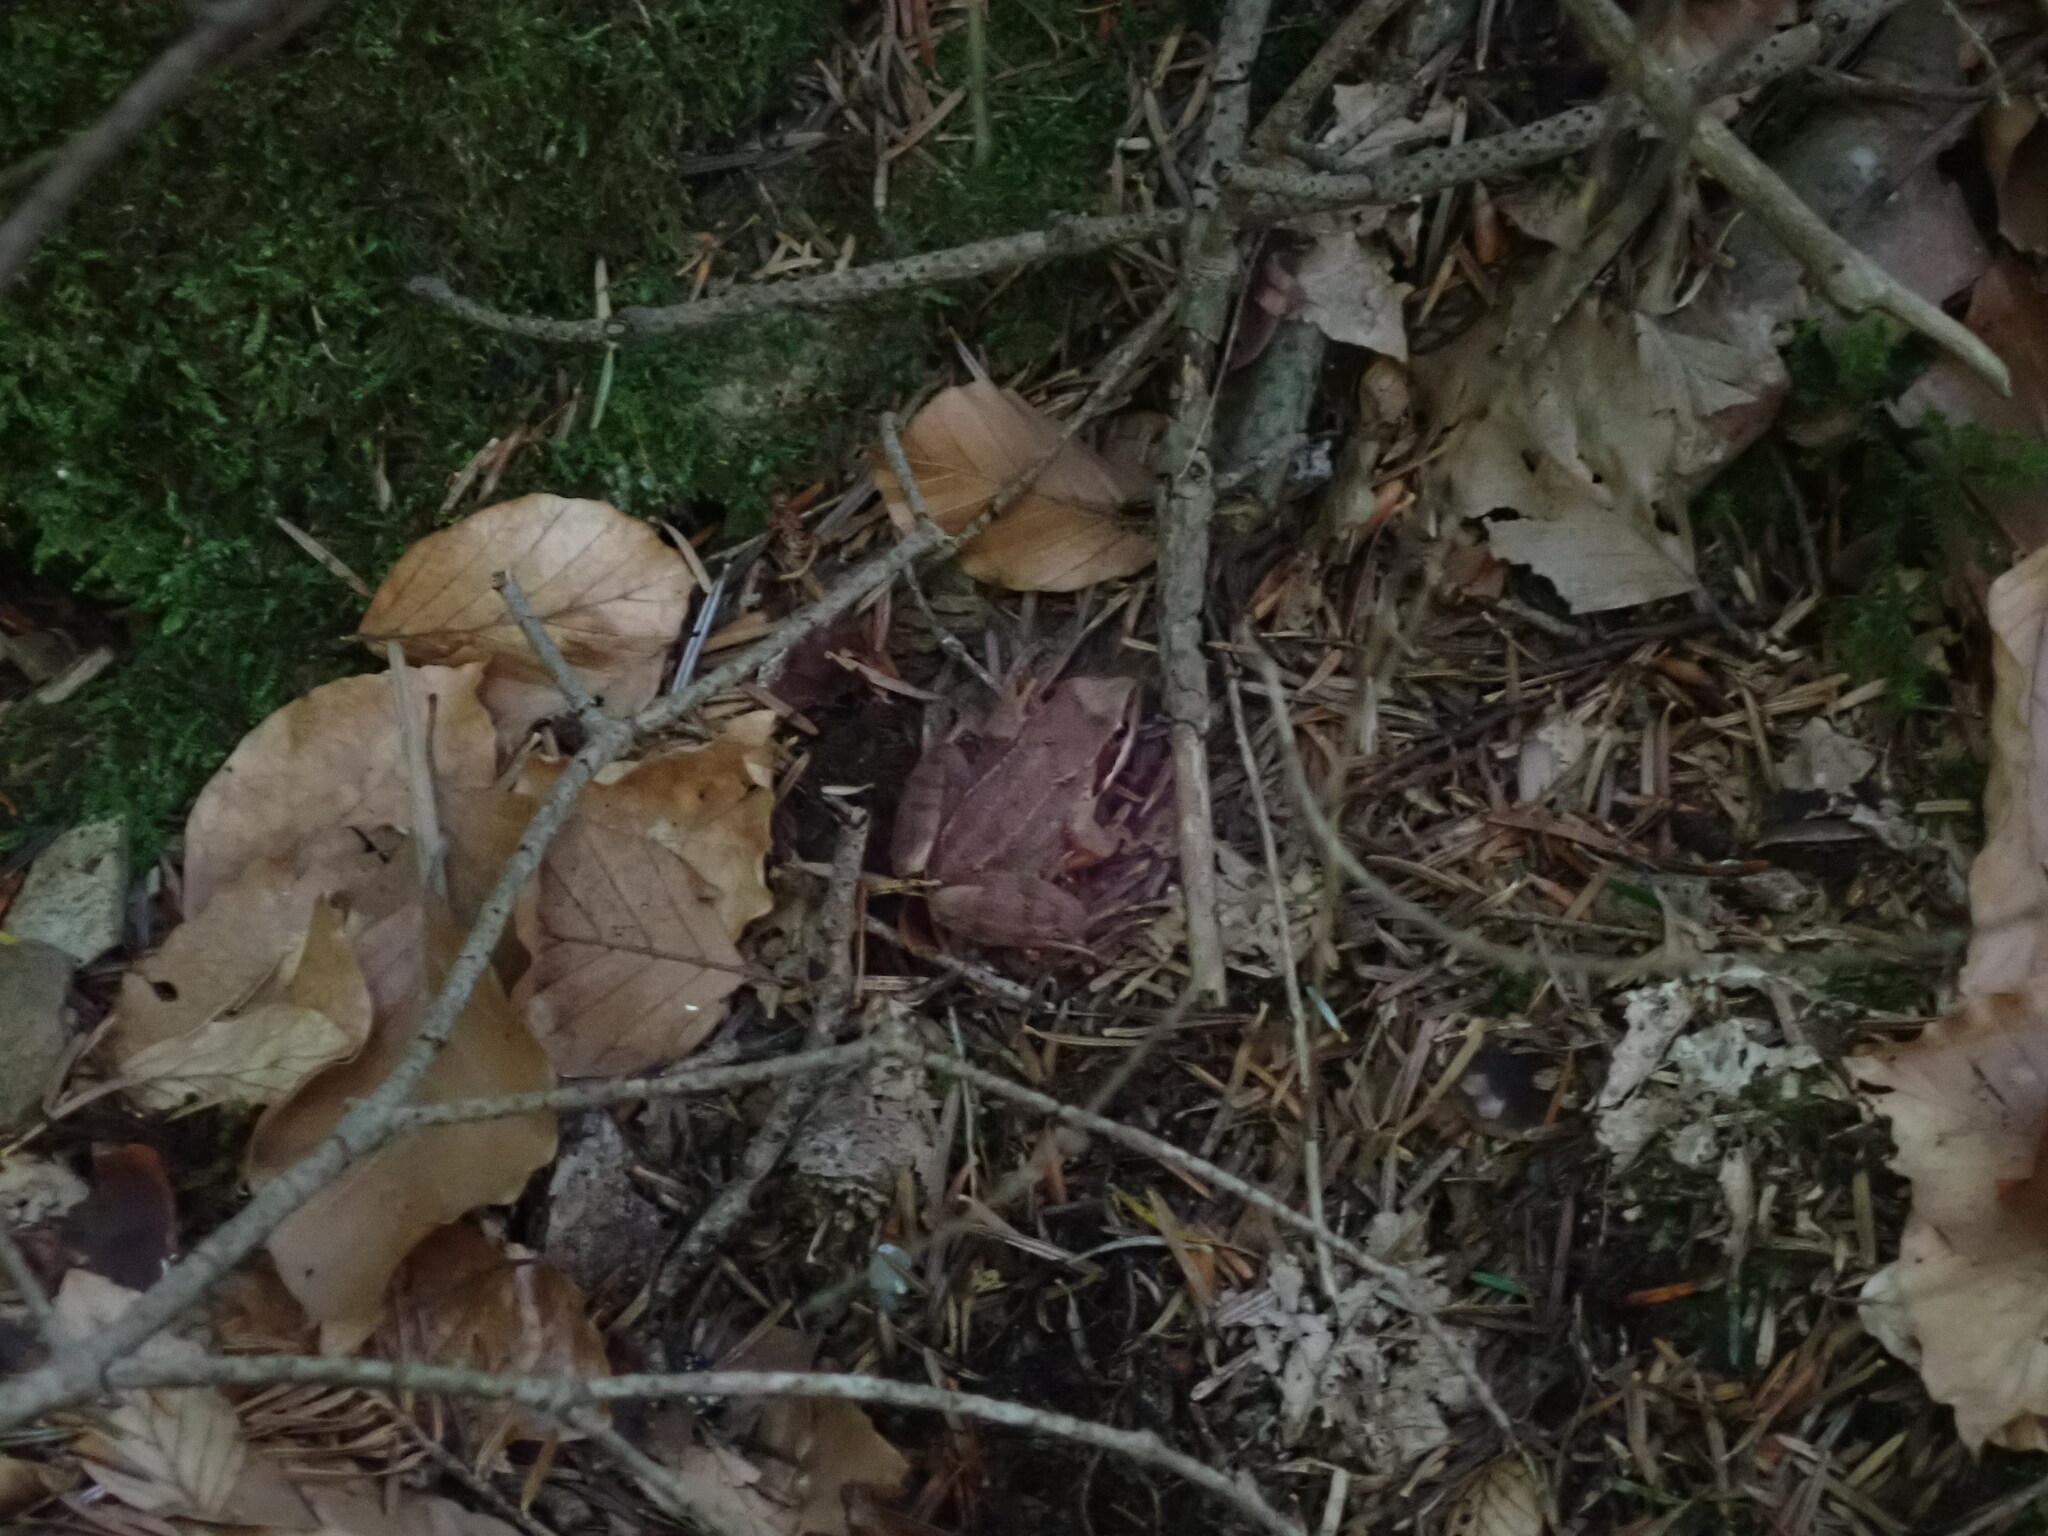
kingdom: Animalia
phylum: Chordata
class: Amphibia
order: Anura
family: Ranidae
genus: Rana
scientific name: Rana temporaria
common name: Common frog
